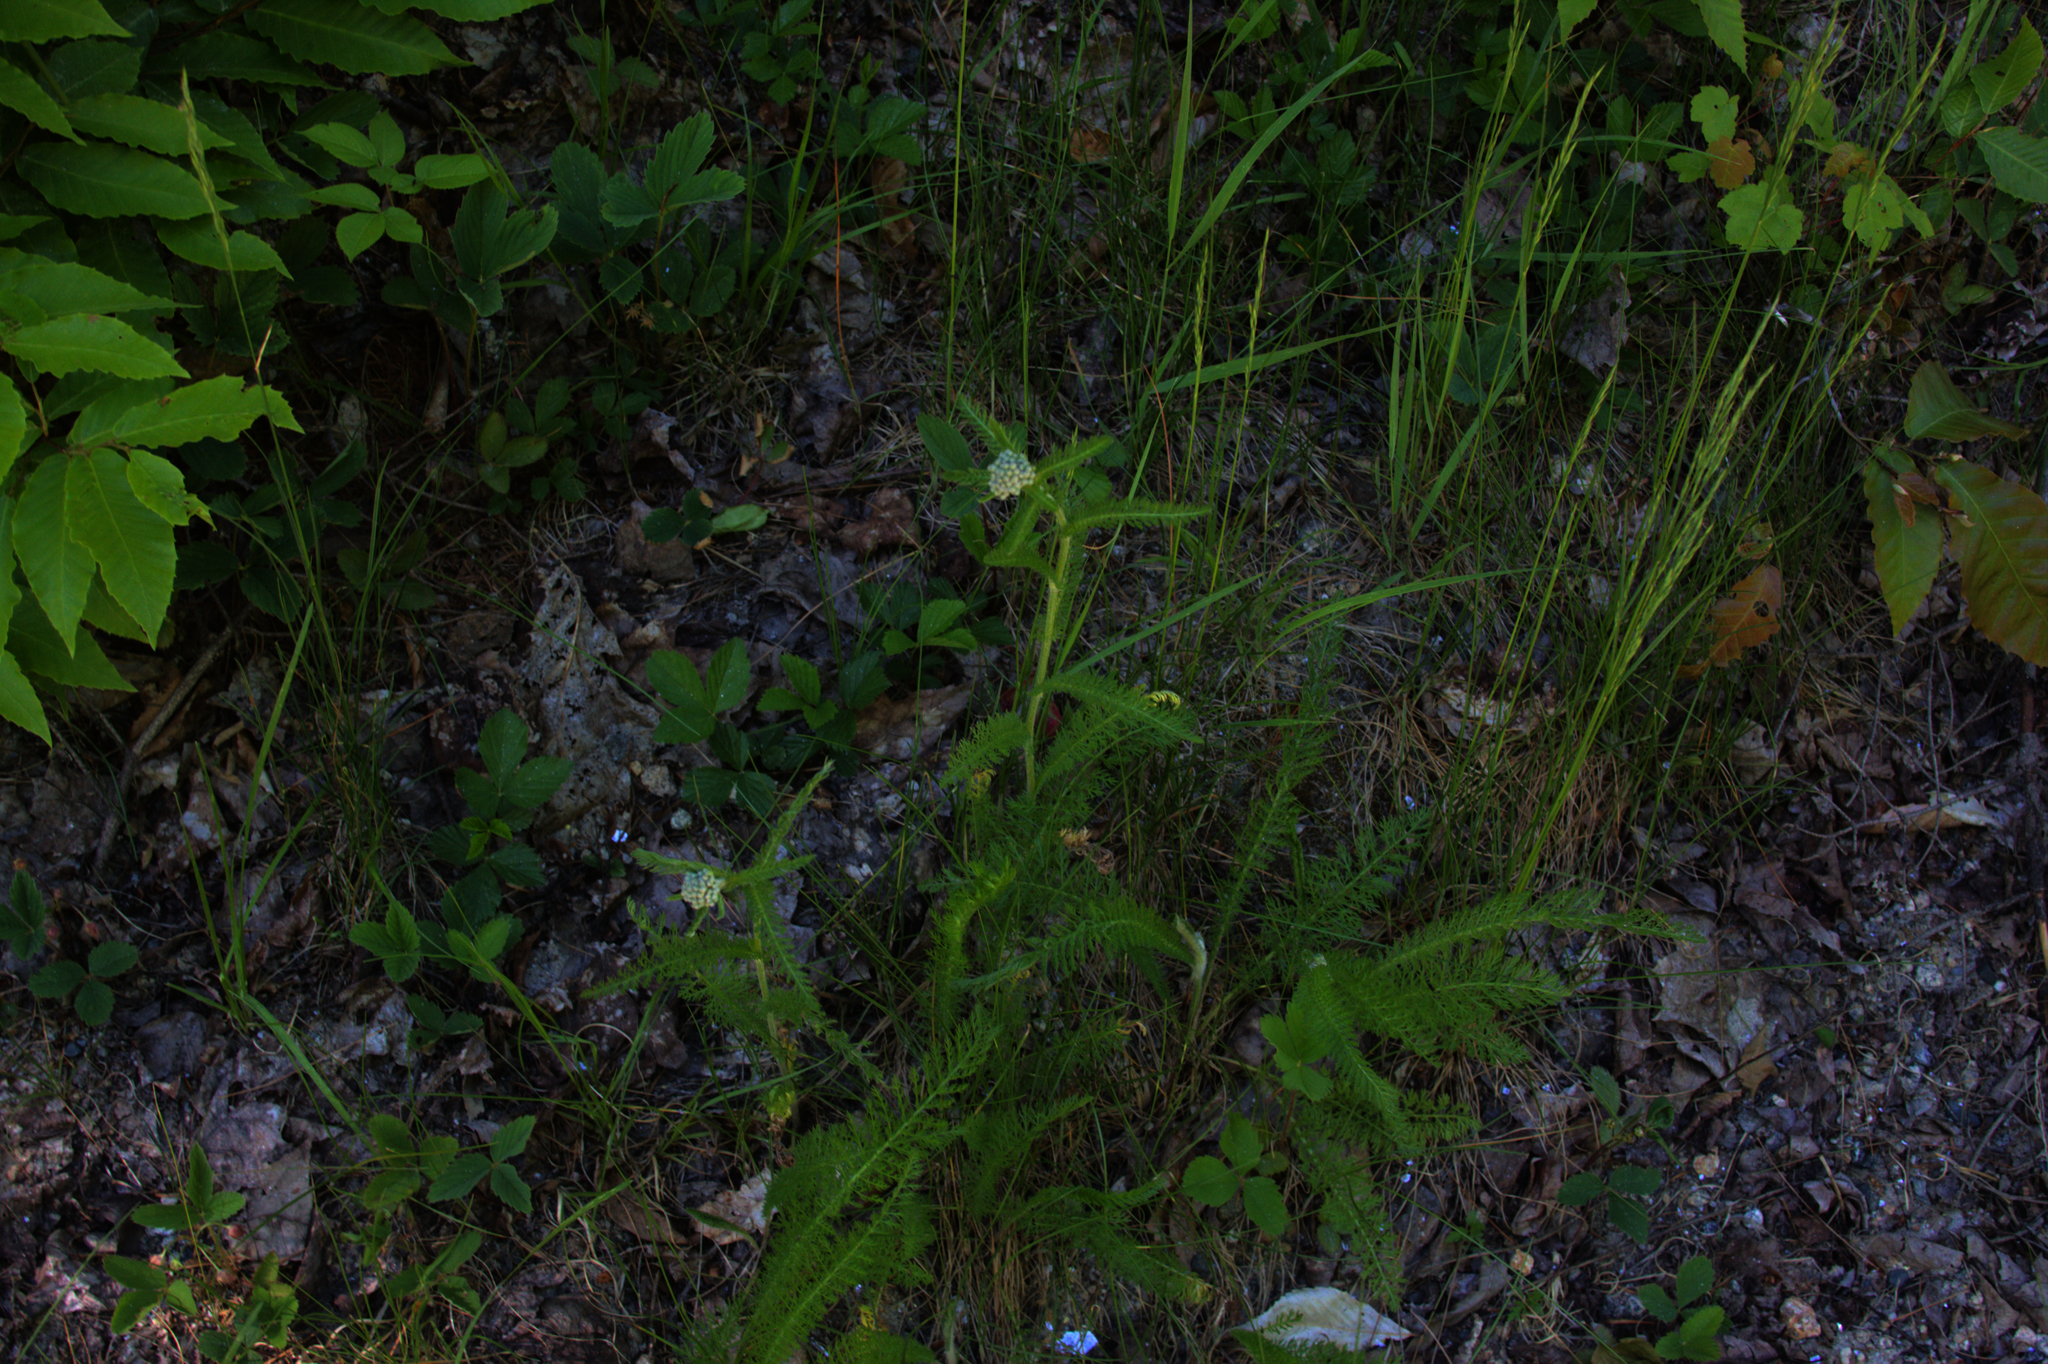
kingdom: Plantae
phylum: Tracheophyta
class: Magnoliopsida
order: Asterales
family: Asteraceae
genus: Achillea
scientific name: Achillea millefolium
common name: Yarrow
